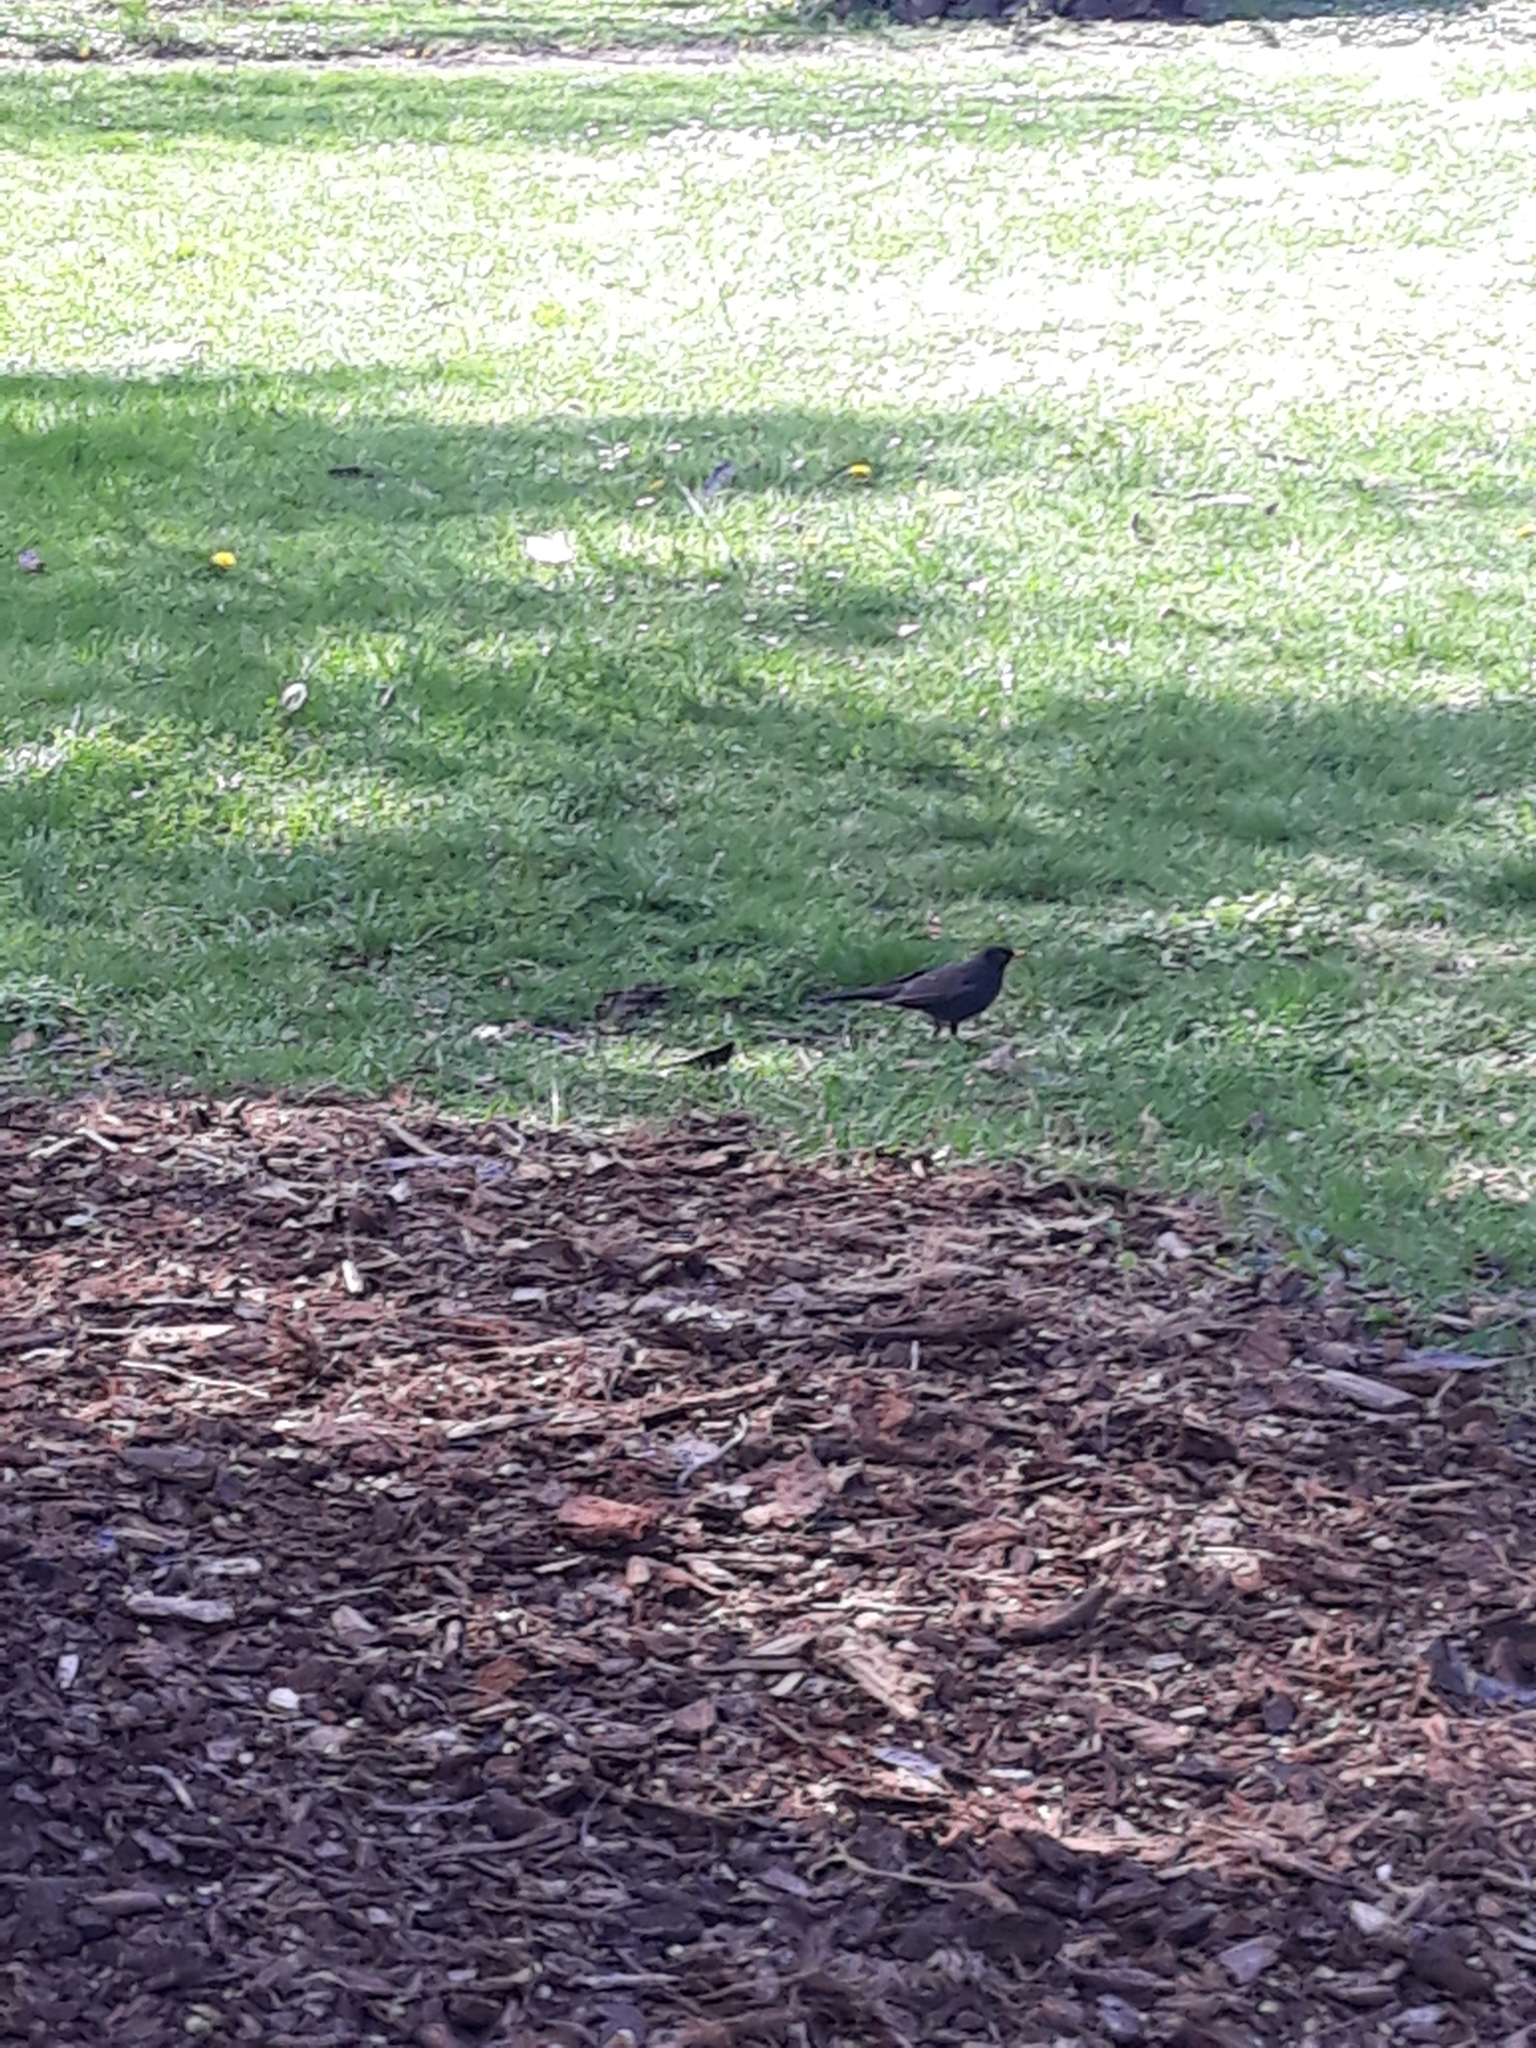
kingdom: Animalia
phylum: Chordata
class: Aves
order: Passeriformes
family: Turdidae
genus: Turdus
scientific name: Turdus merula
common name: Common blackbird
